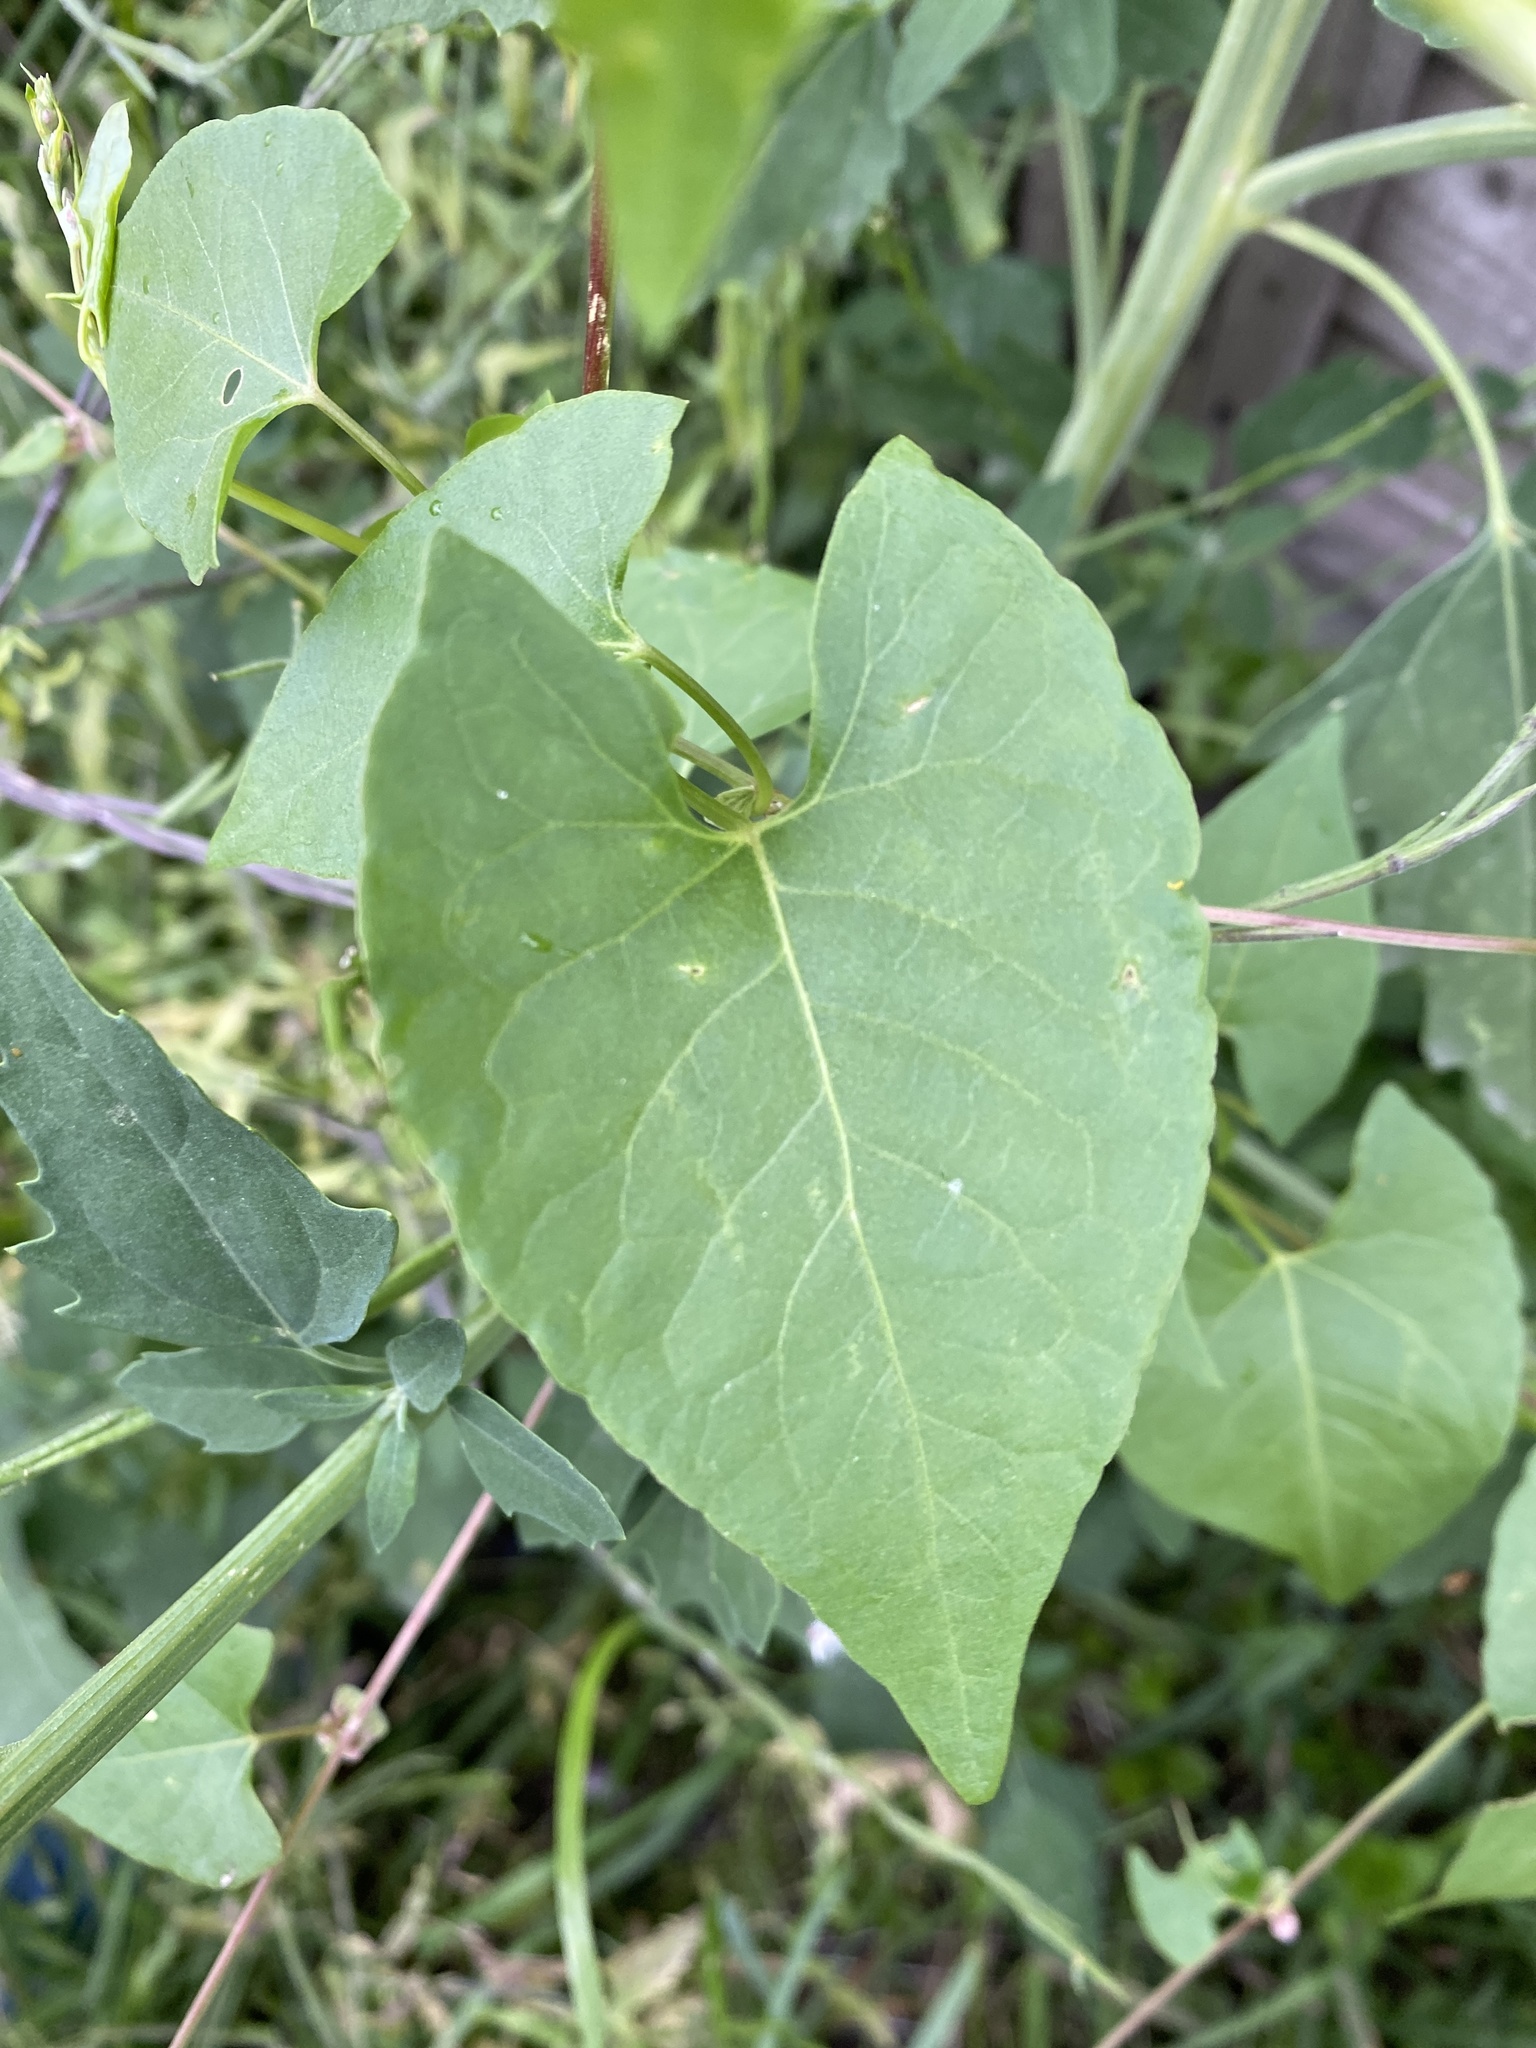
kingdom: Plantae
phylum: Tracheophyta
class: Magnoliopsida
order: Caryophyllales
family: Polygonaceae
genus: Fallopia
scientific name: Fallopia convolvulus
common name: Black bindweed
